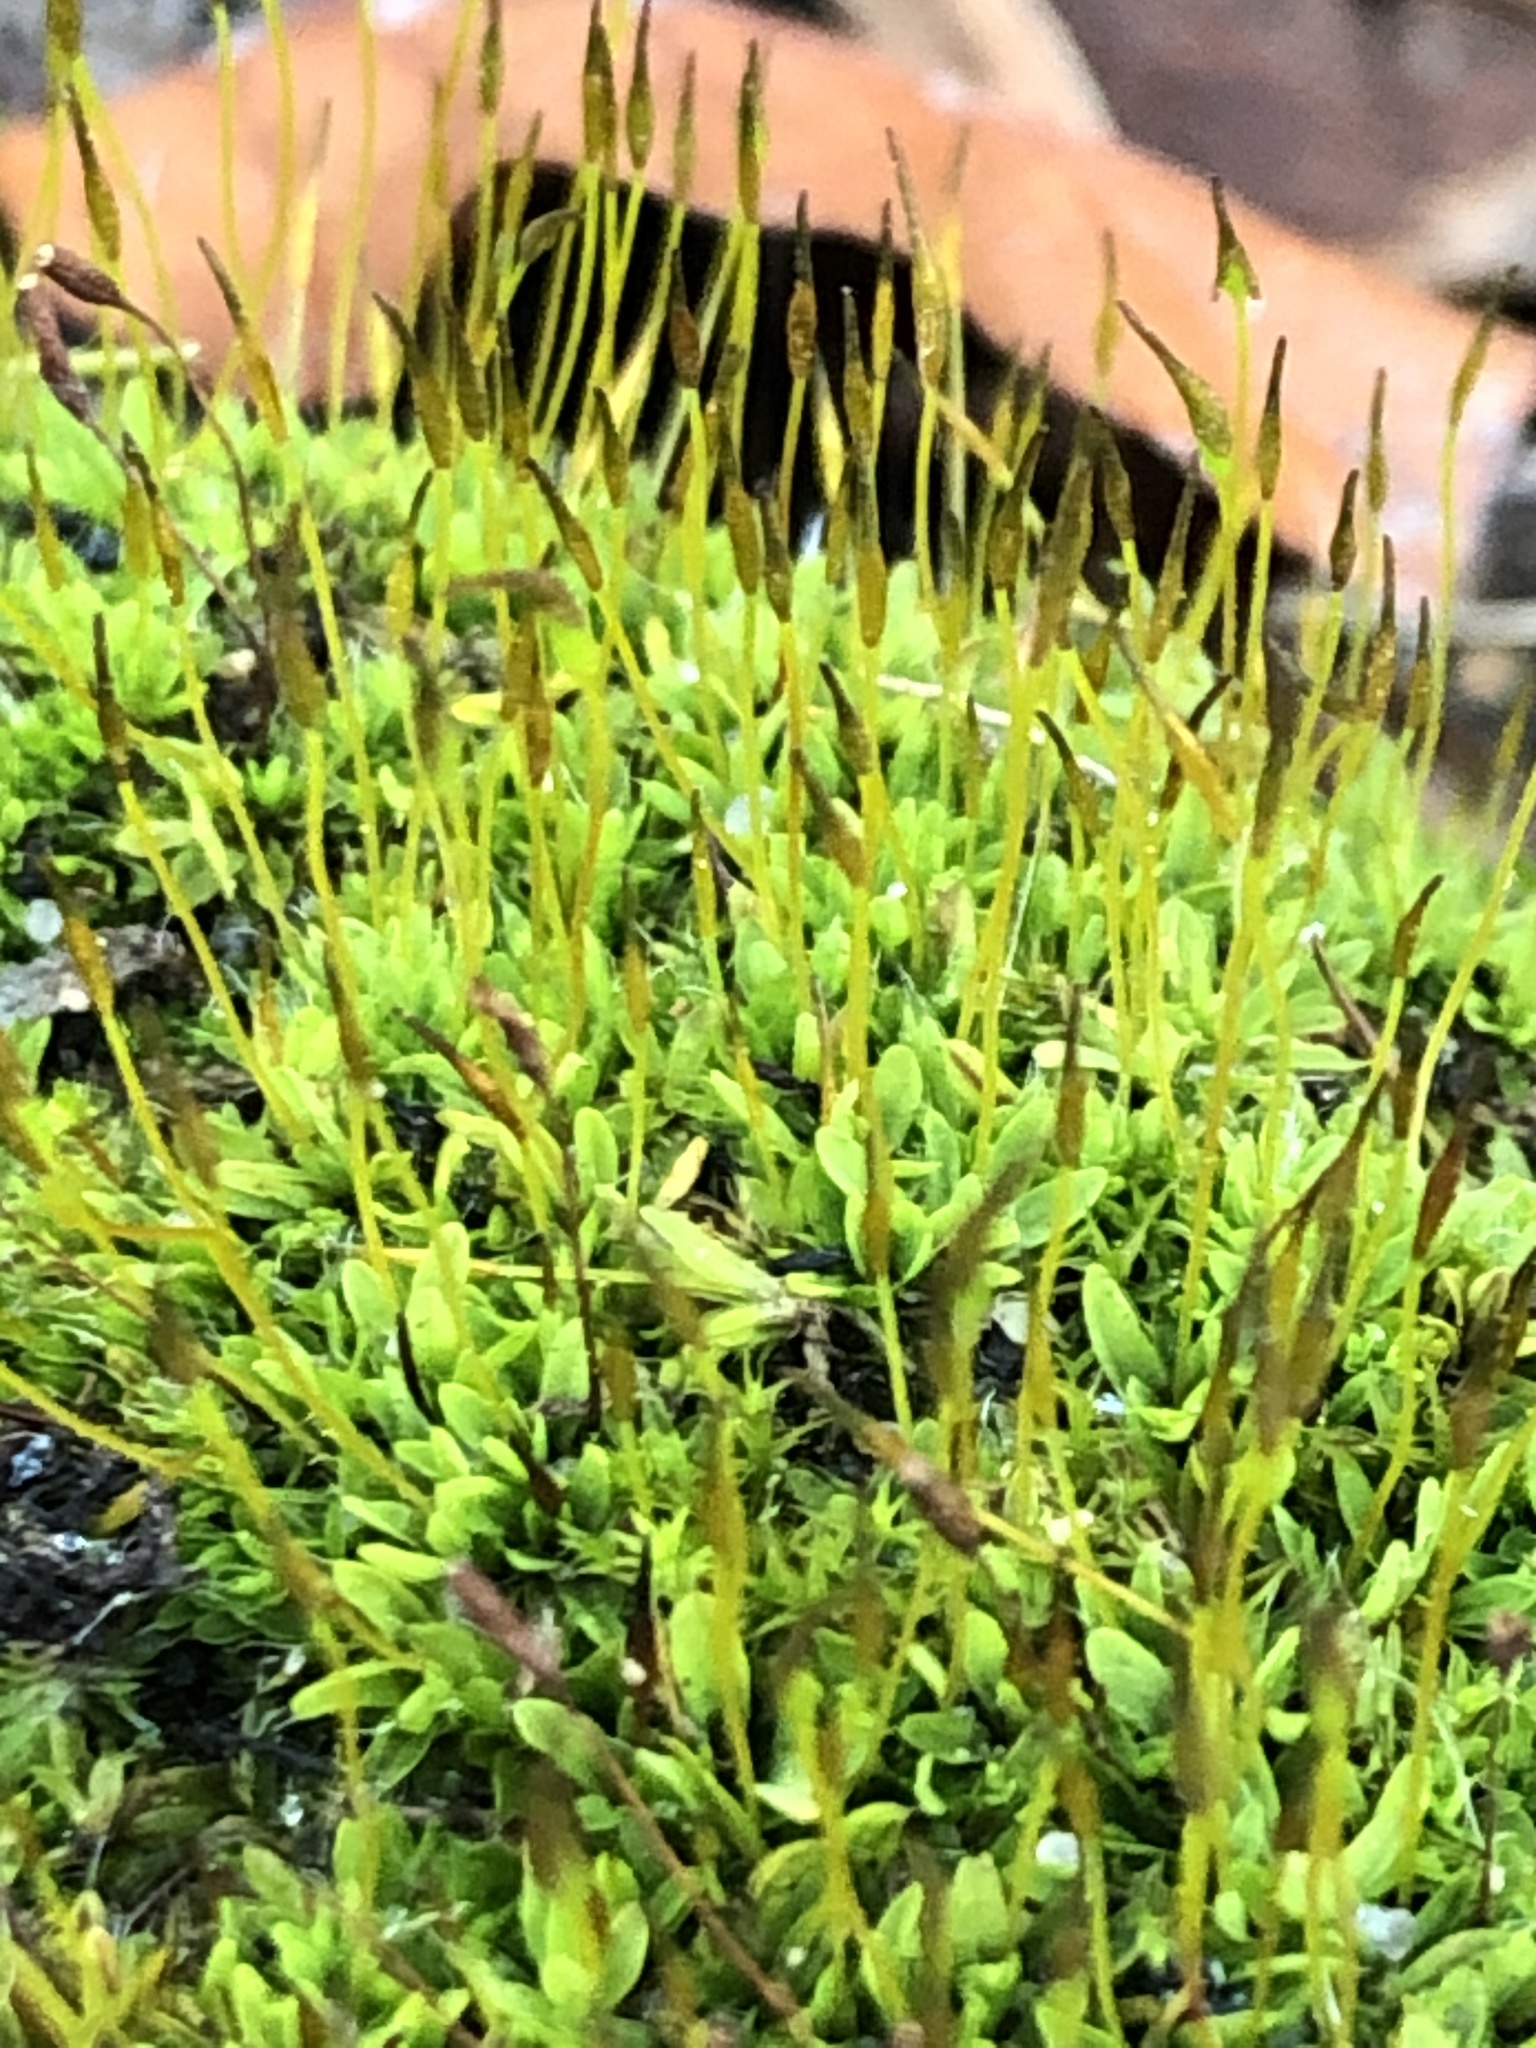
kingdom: Plantae
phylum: Bryophyta
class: Bryopsida
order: Pottiales
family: Pottiaceae
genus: Tortula
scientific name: Tortula muralis
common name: Wall screw-moss
